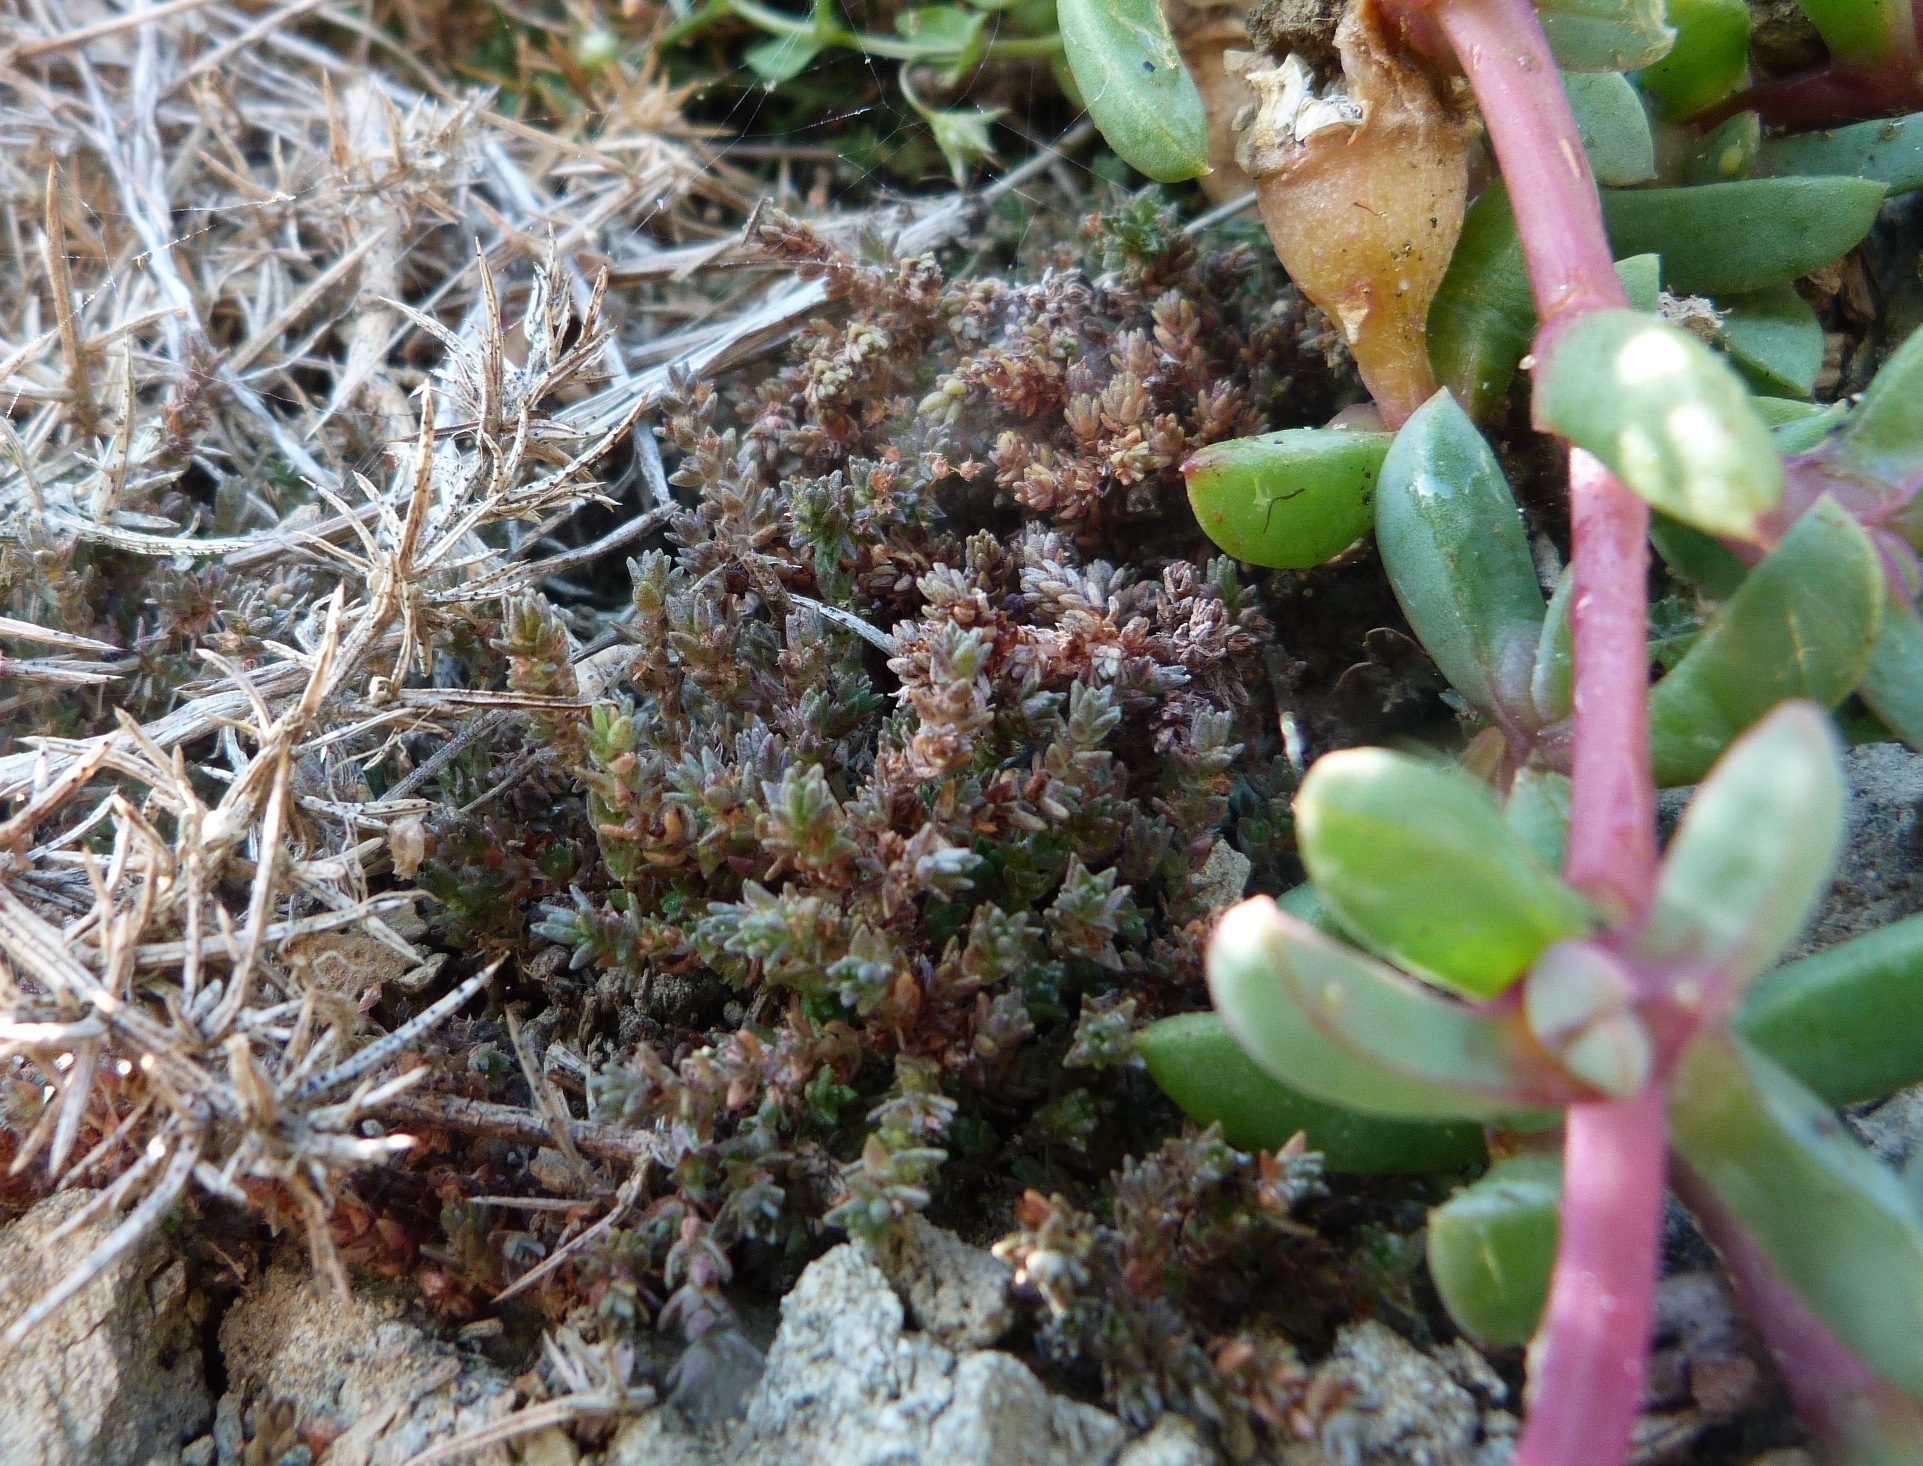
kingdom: Plantae
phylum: Tracheophyta
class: Magnoliopsida
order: Saxifragales
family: Crassulaceae
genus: Crassula
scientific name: Crassula sieberiana
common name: Siberian pygmyweed
